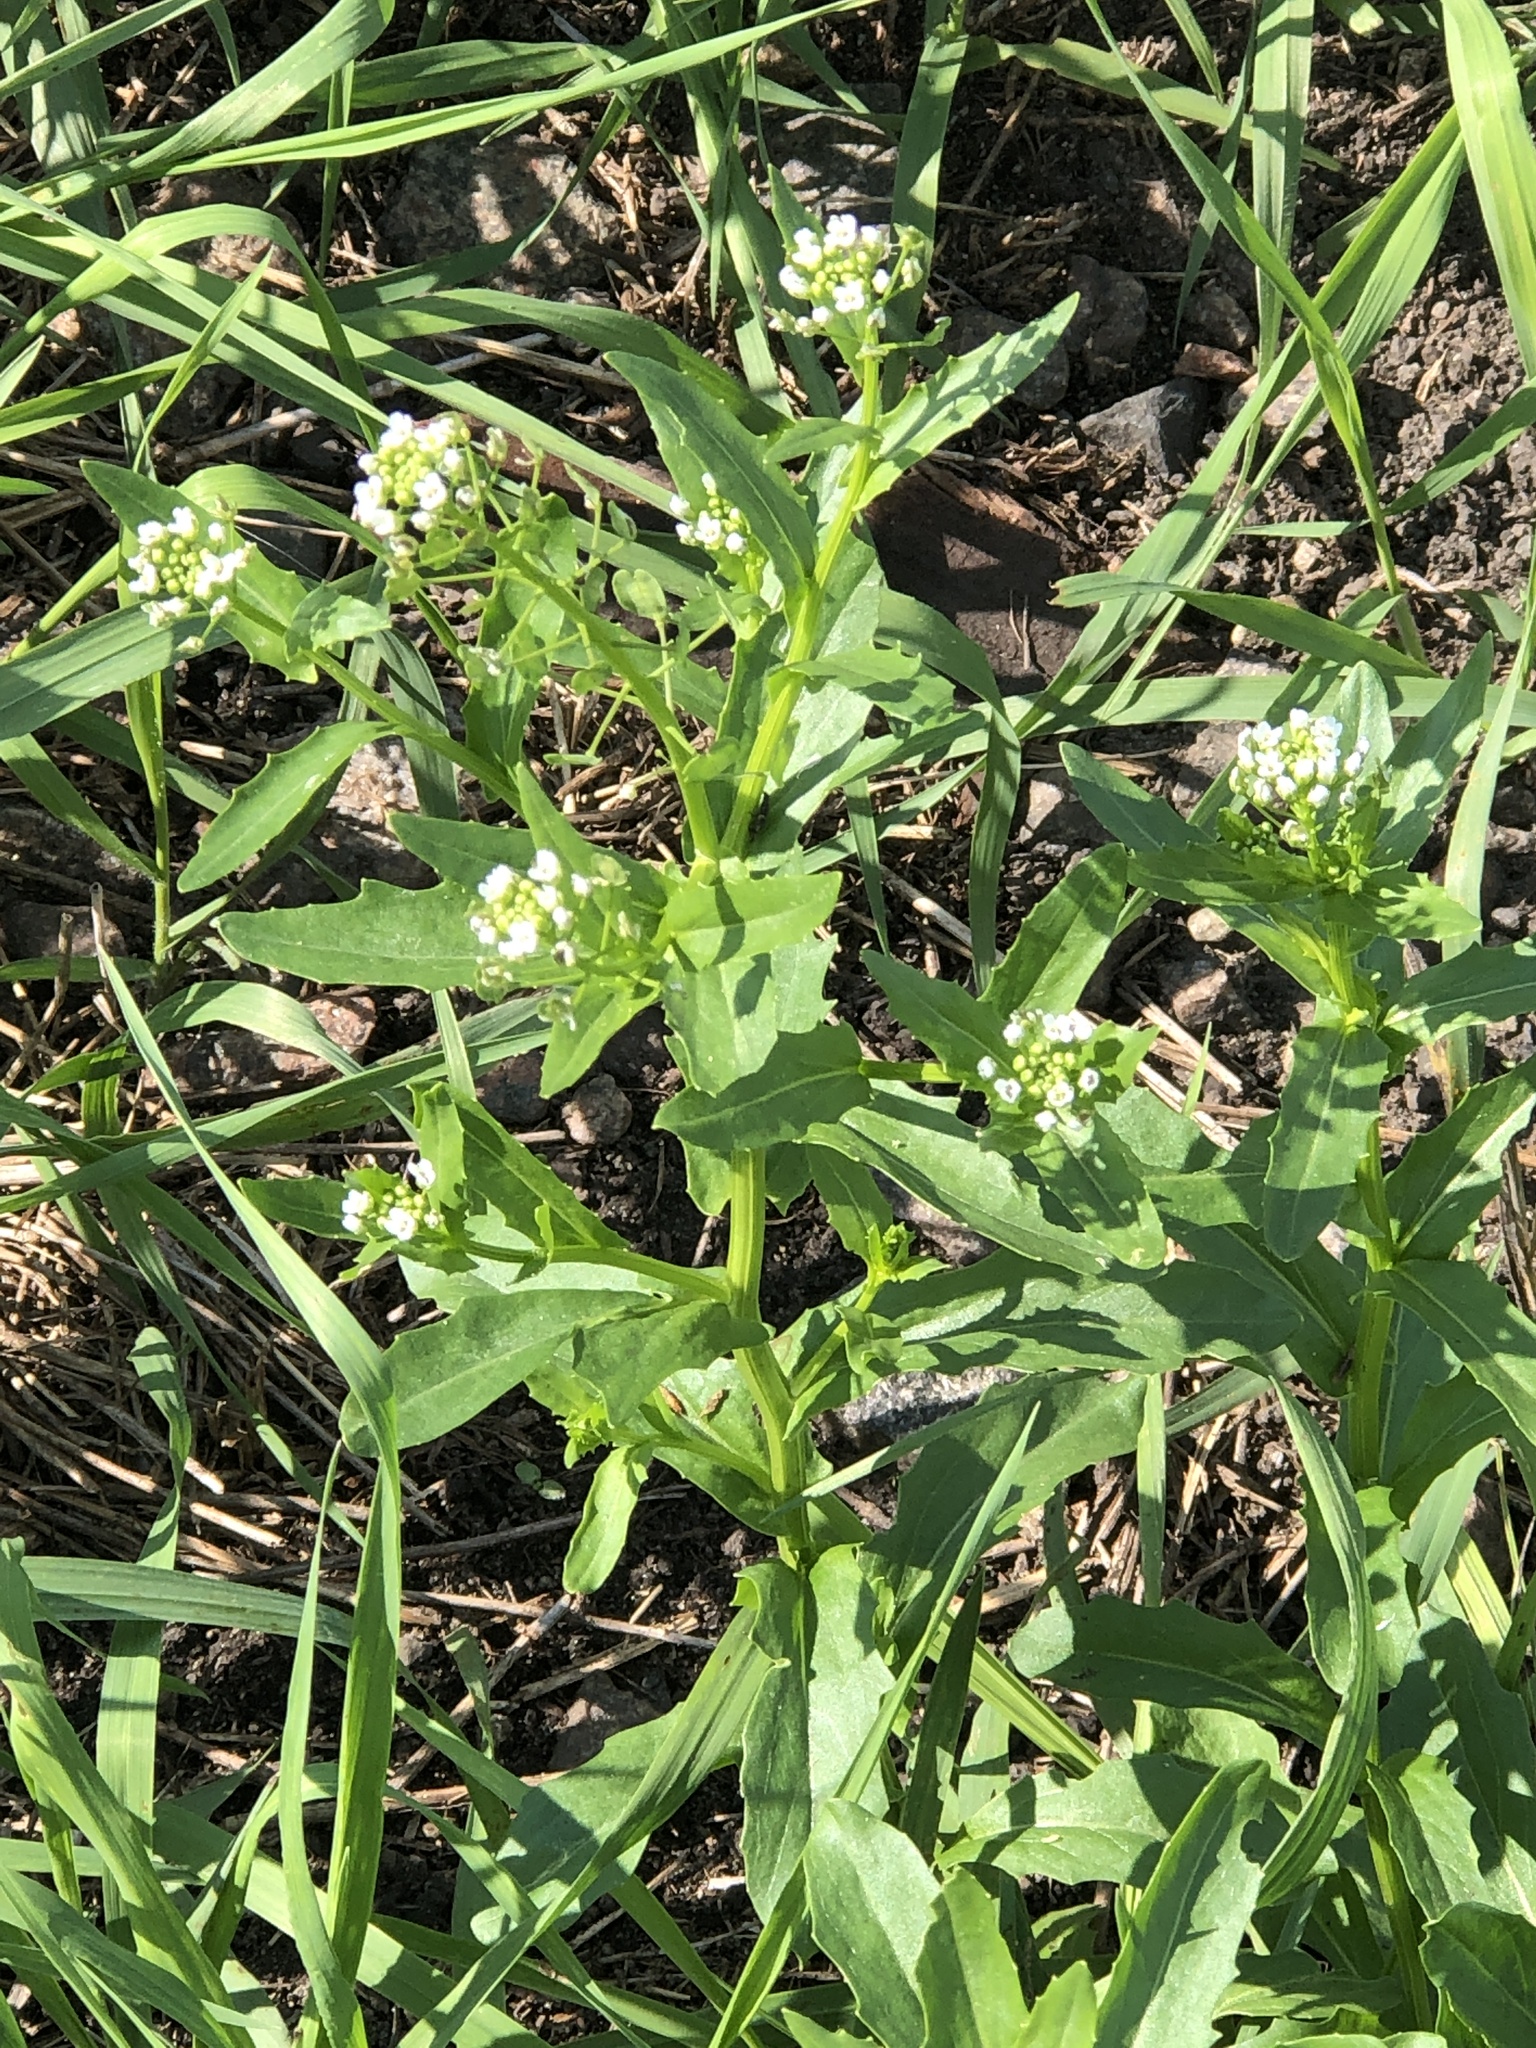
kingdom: Plantae
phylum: Tracheophyta
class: Magnoliopsida
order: Brassicales
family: Brassicaceae
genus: Thlaspi
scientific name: Thlaspi arvense
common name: Field pennycress
